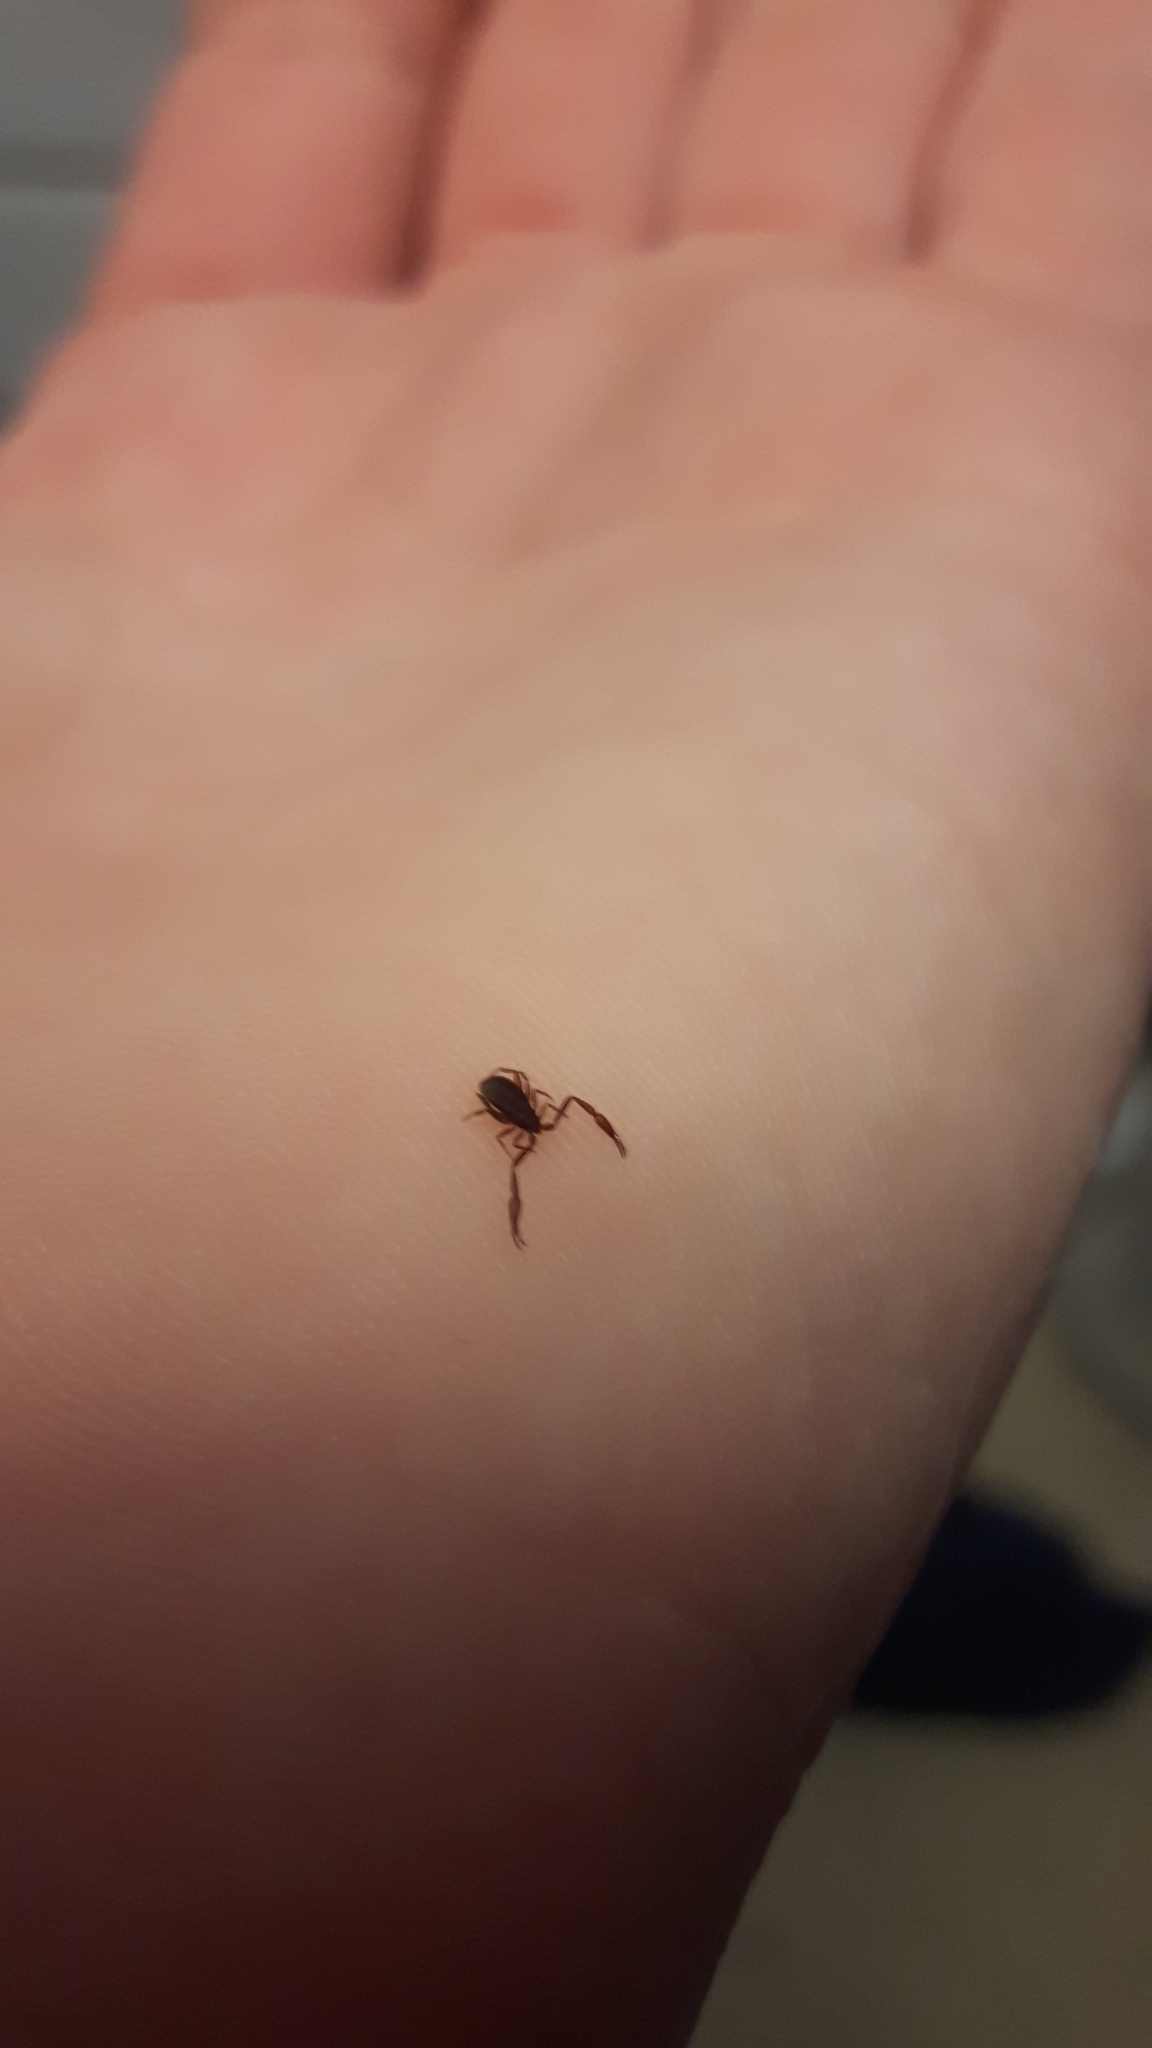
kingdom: Animalia
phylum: Arthropoda
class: Arachnida
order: Pseudoscorpiones
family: Cheliferidae
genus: Chelifer
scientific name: Chelifer cancroides
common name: House false-scorpion
